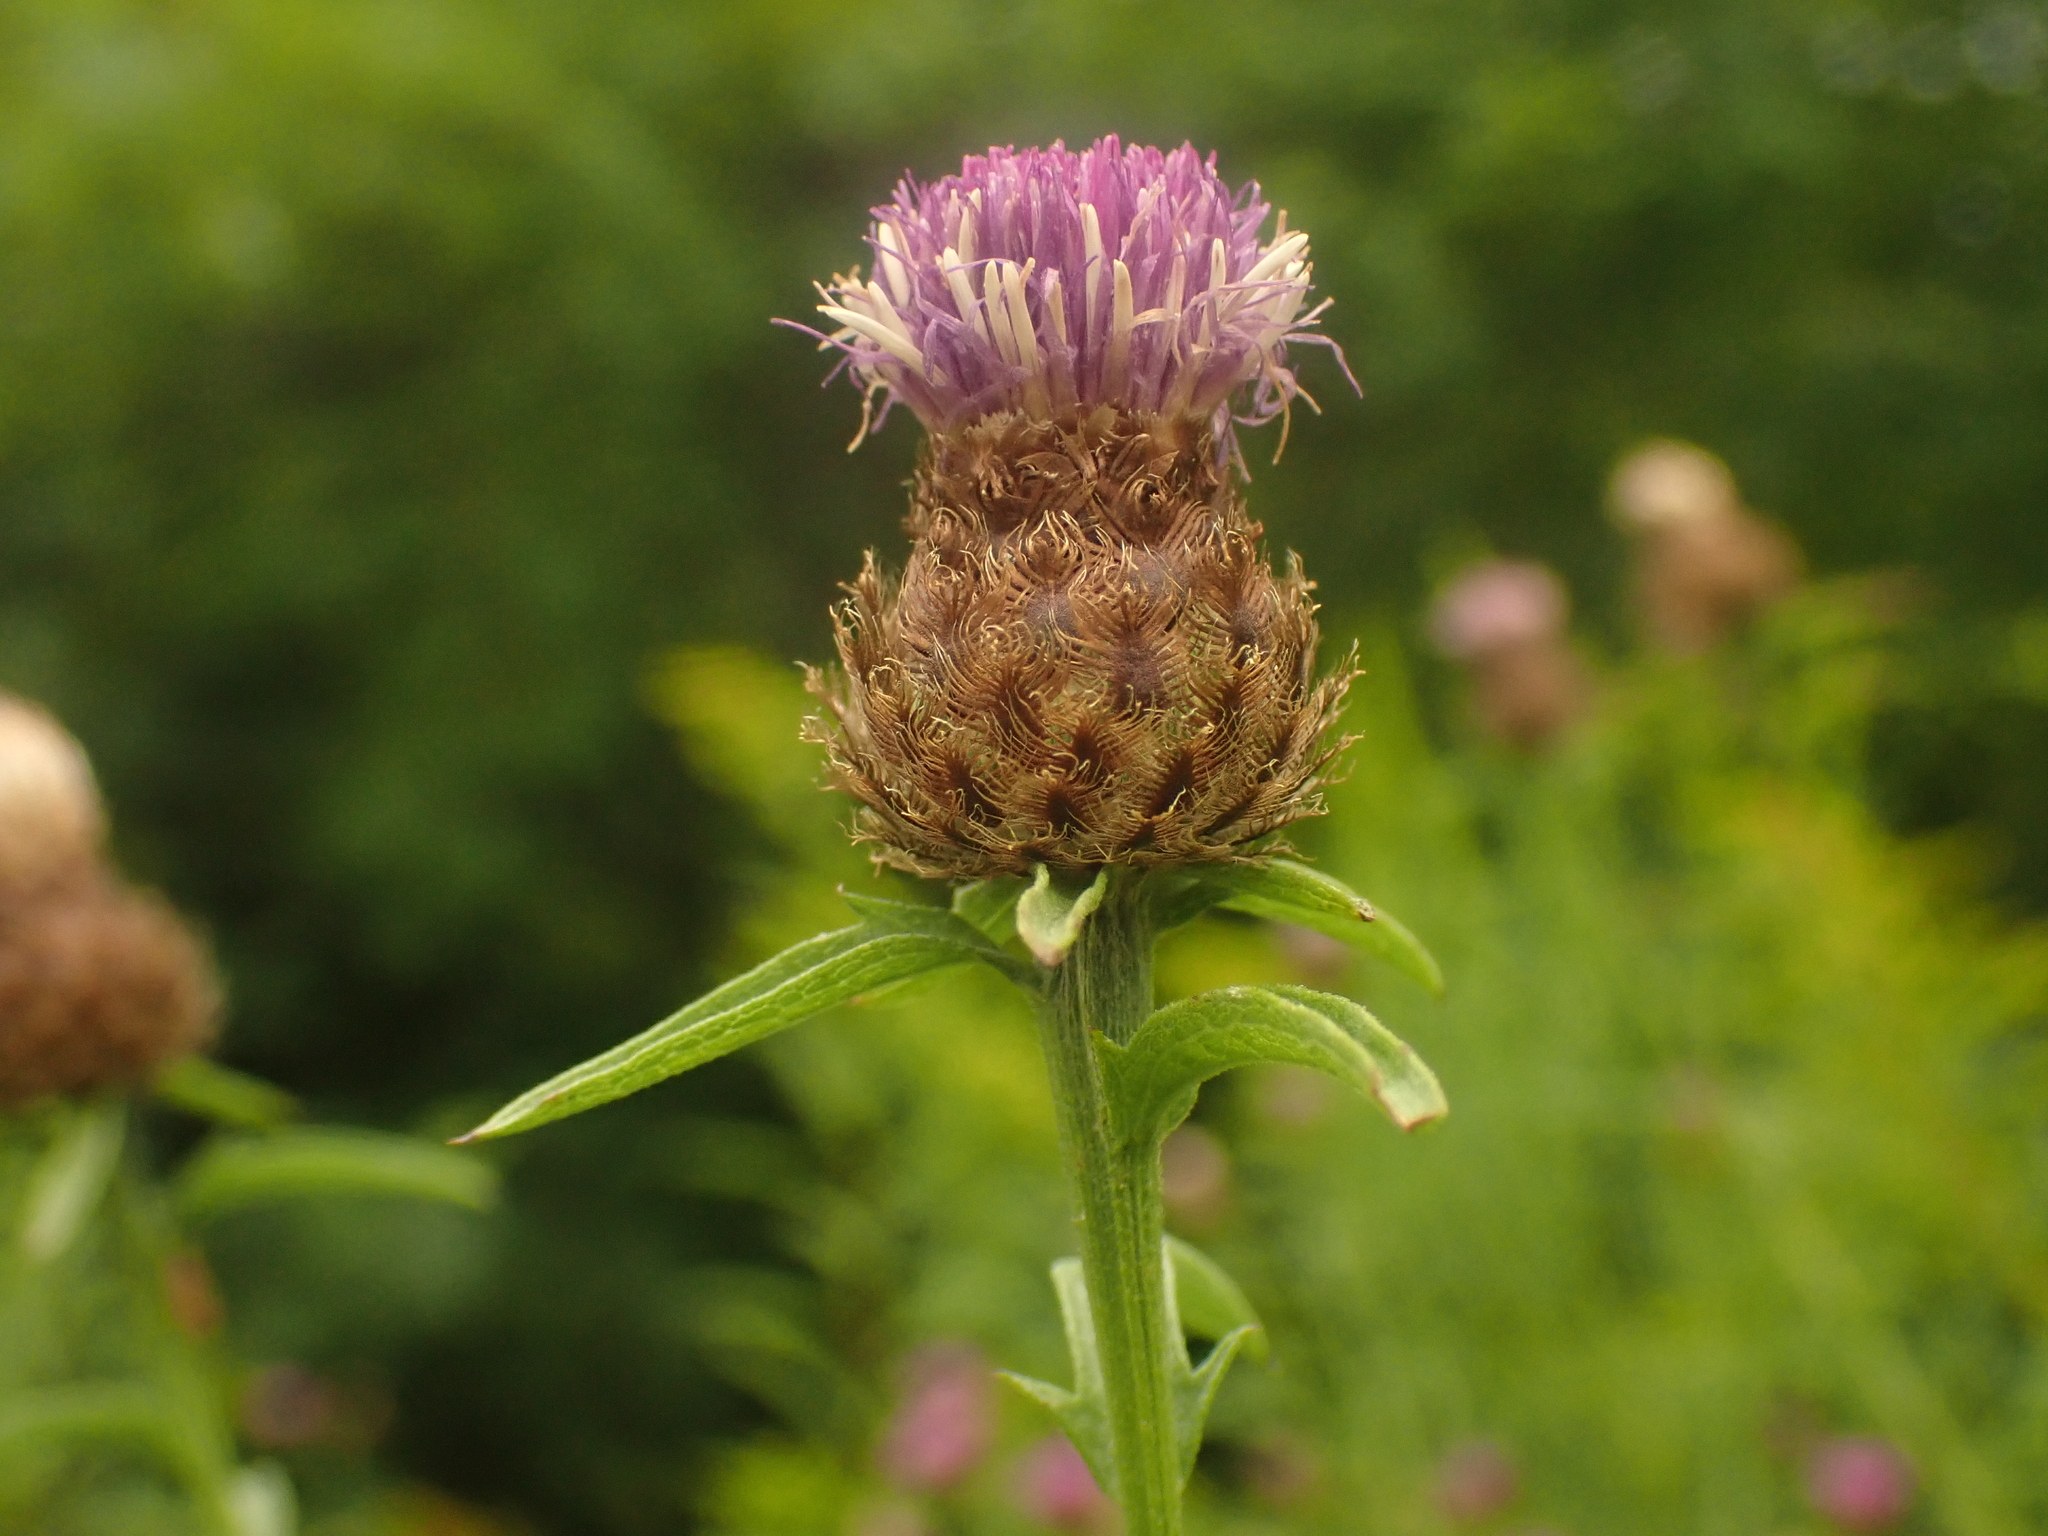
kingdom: Plantae
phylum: Tracheophyta
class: Magnoliopsida
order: Asterales
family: Asteraceae
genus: Centaurea
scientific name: Centaurea nigra
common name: Lesser knapweed
